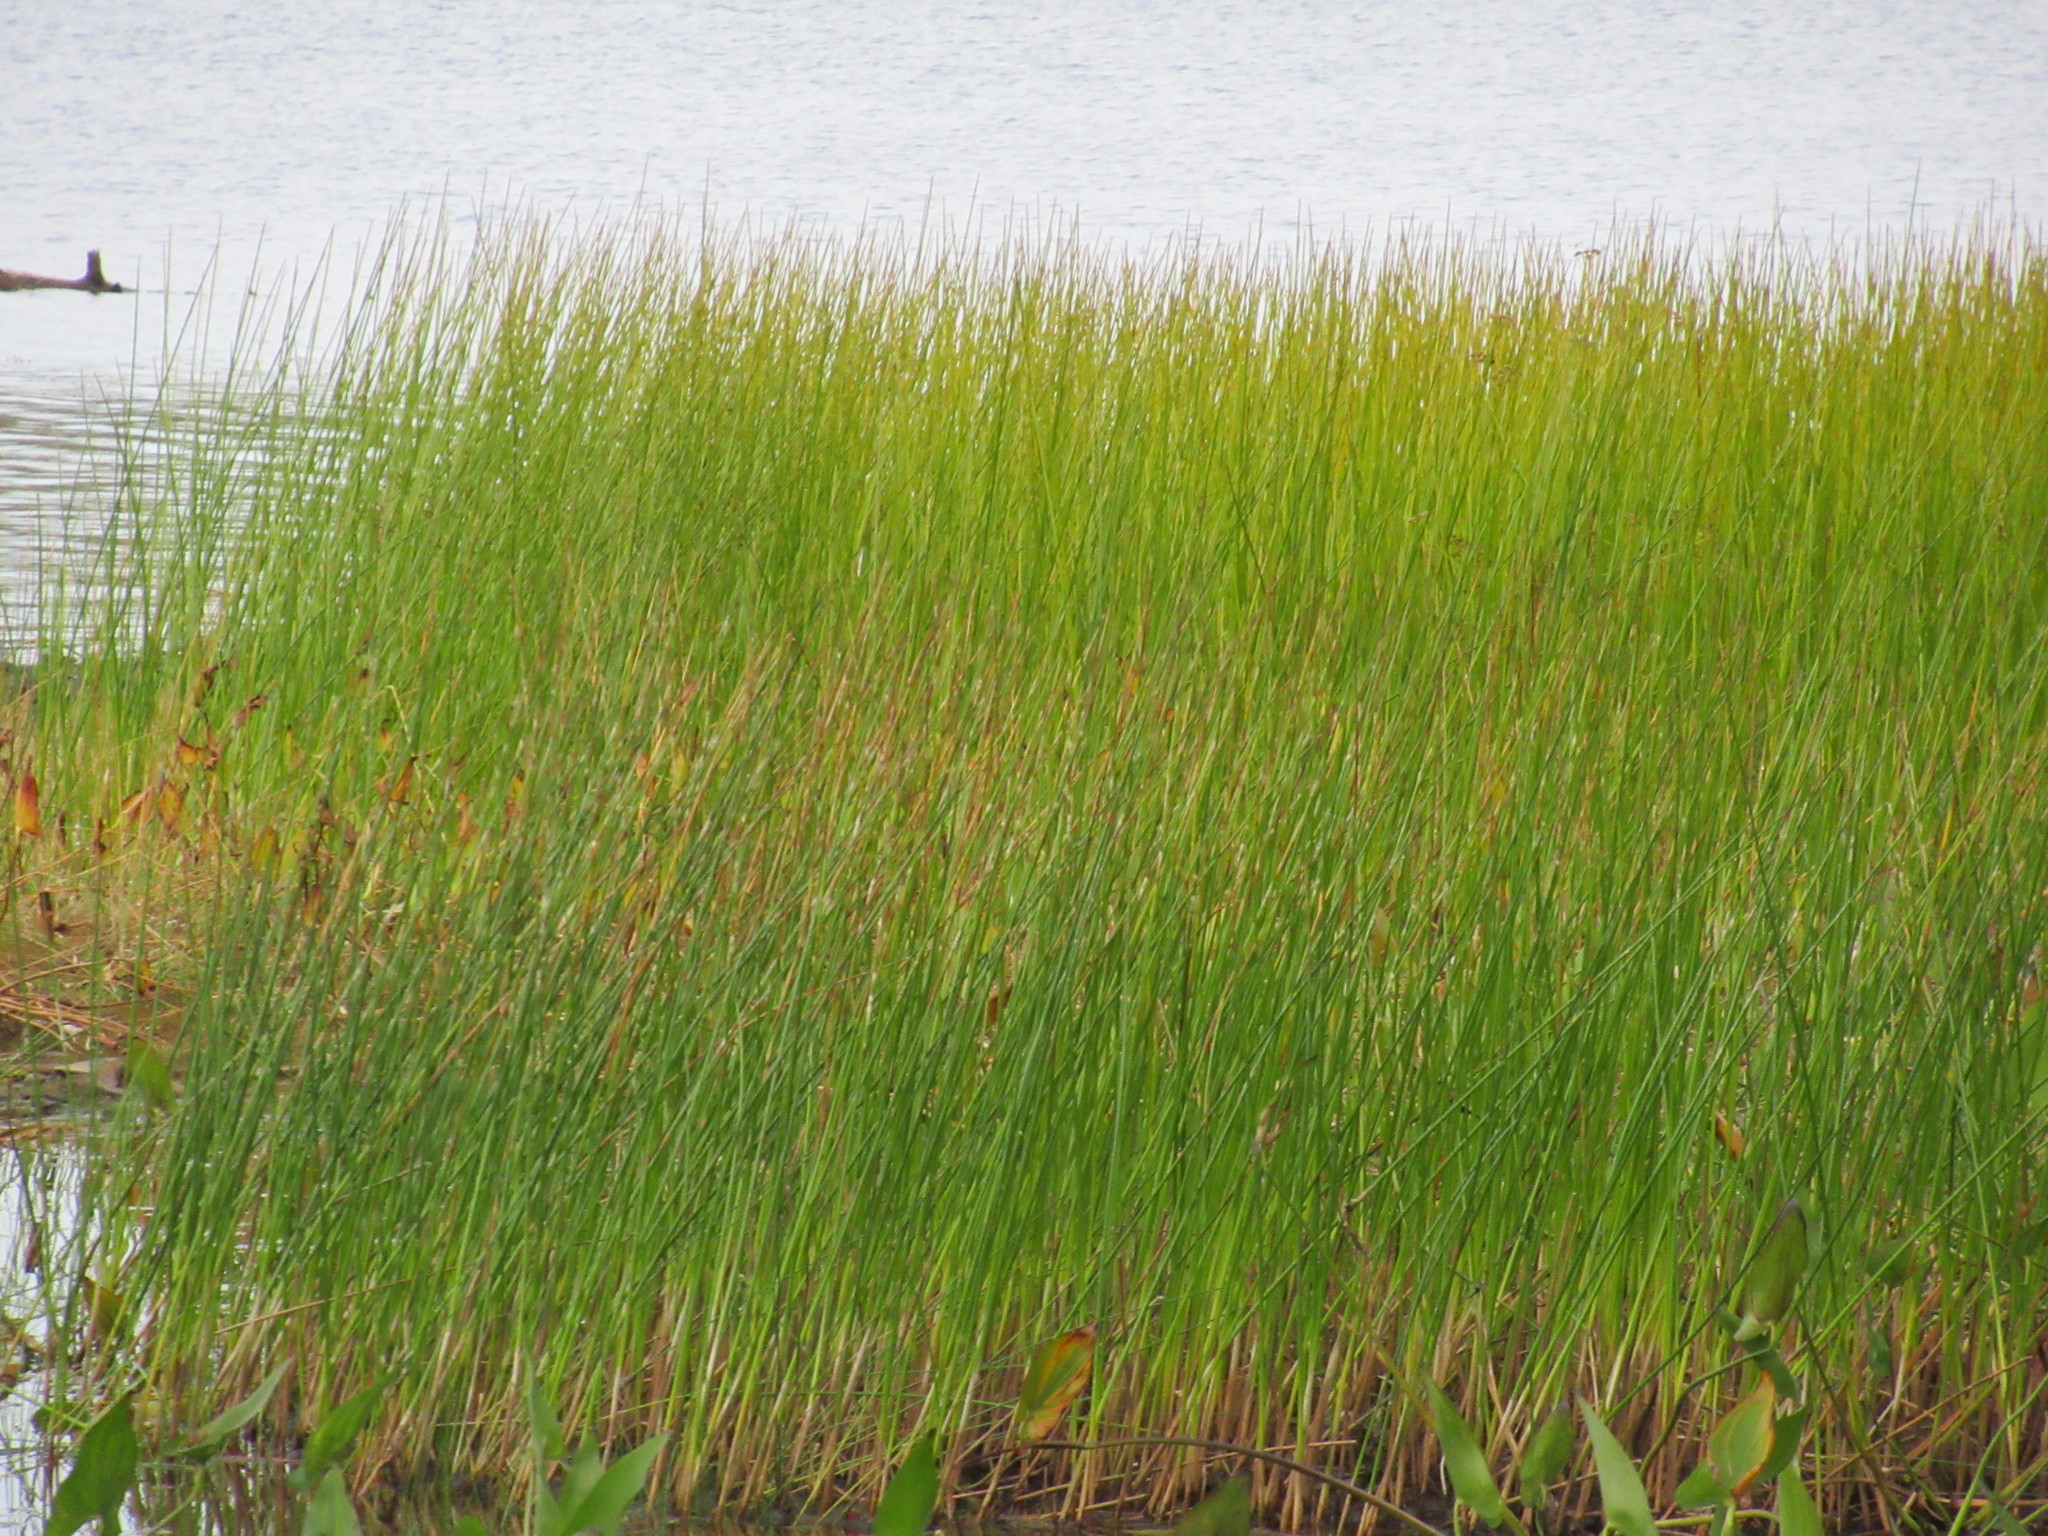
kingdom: Plantae
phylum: Tracheophyta
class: Liliopsida
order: Poales
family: Juncaceae
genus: Juncus
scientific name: Juncus militaris
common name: Bayonet rush
